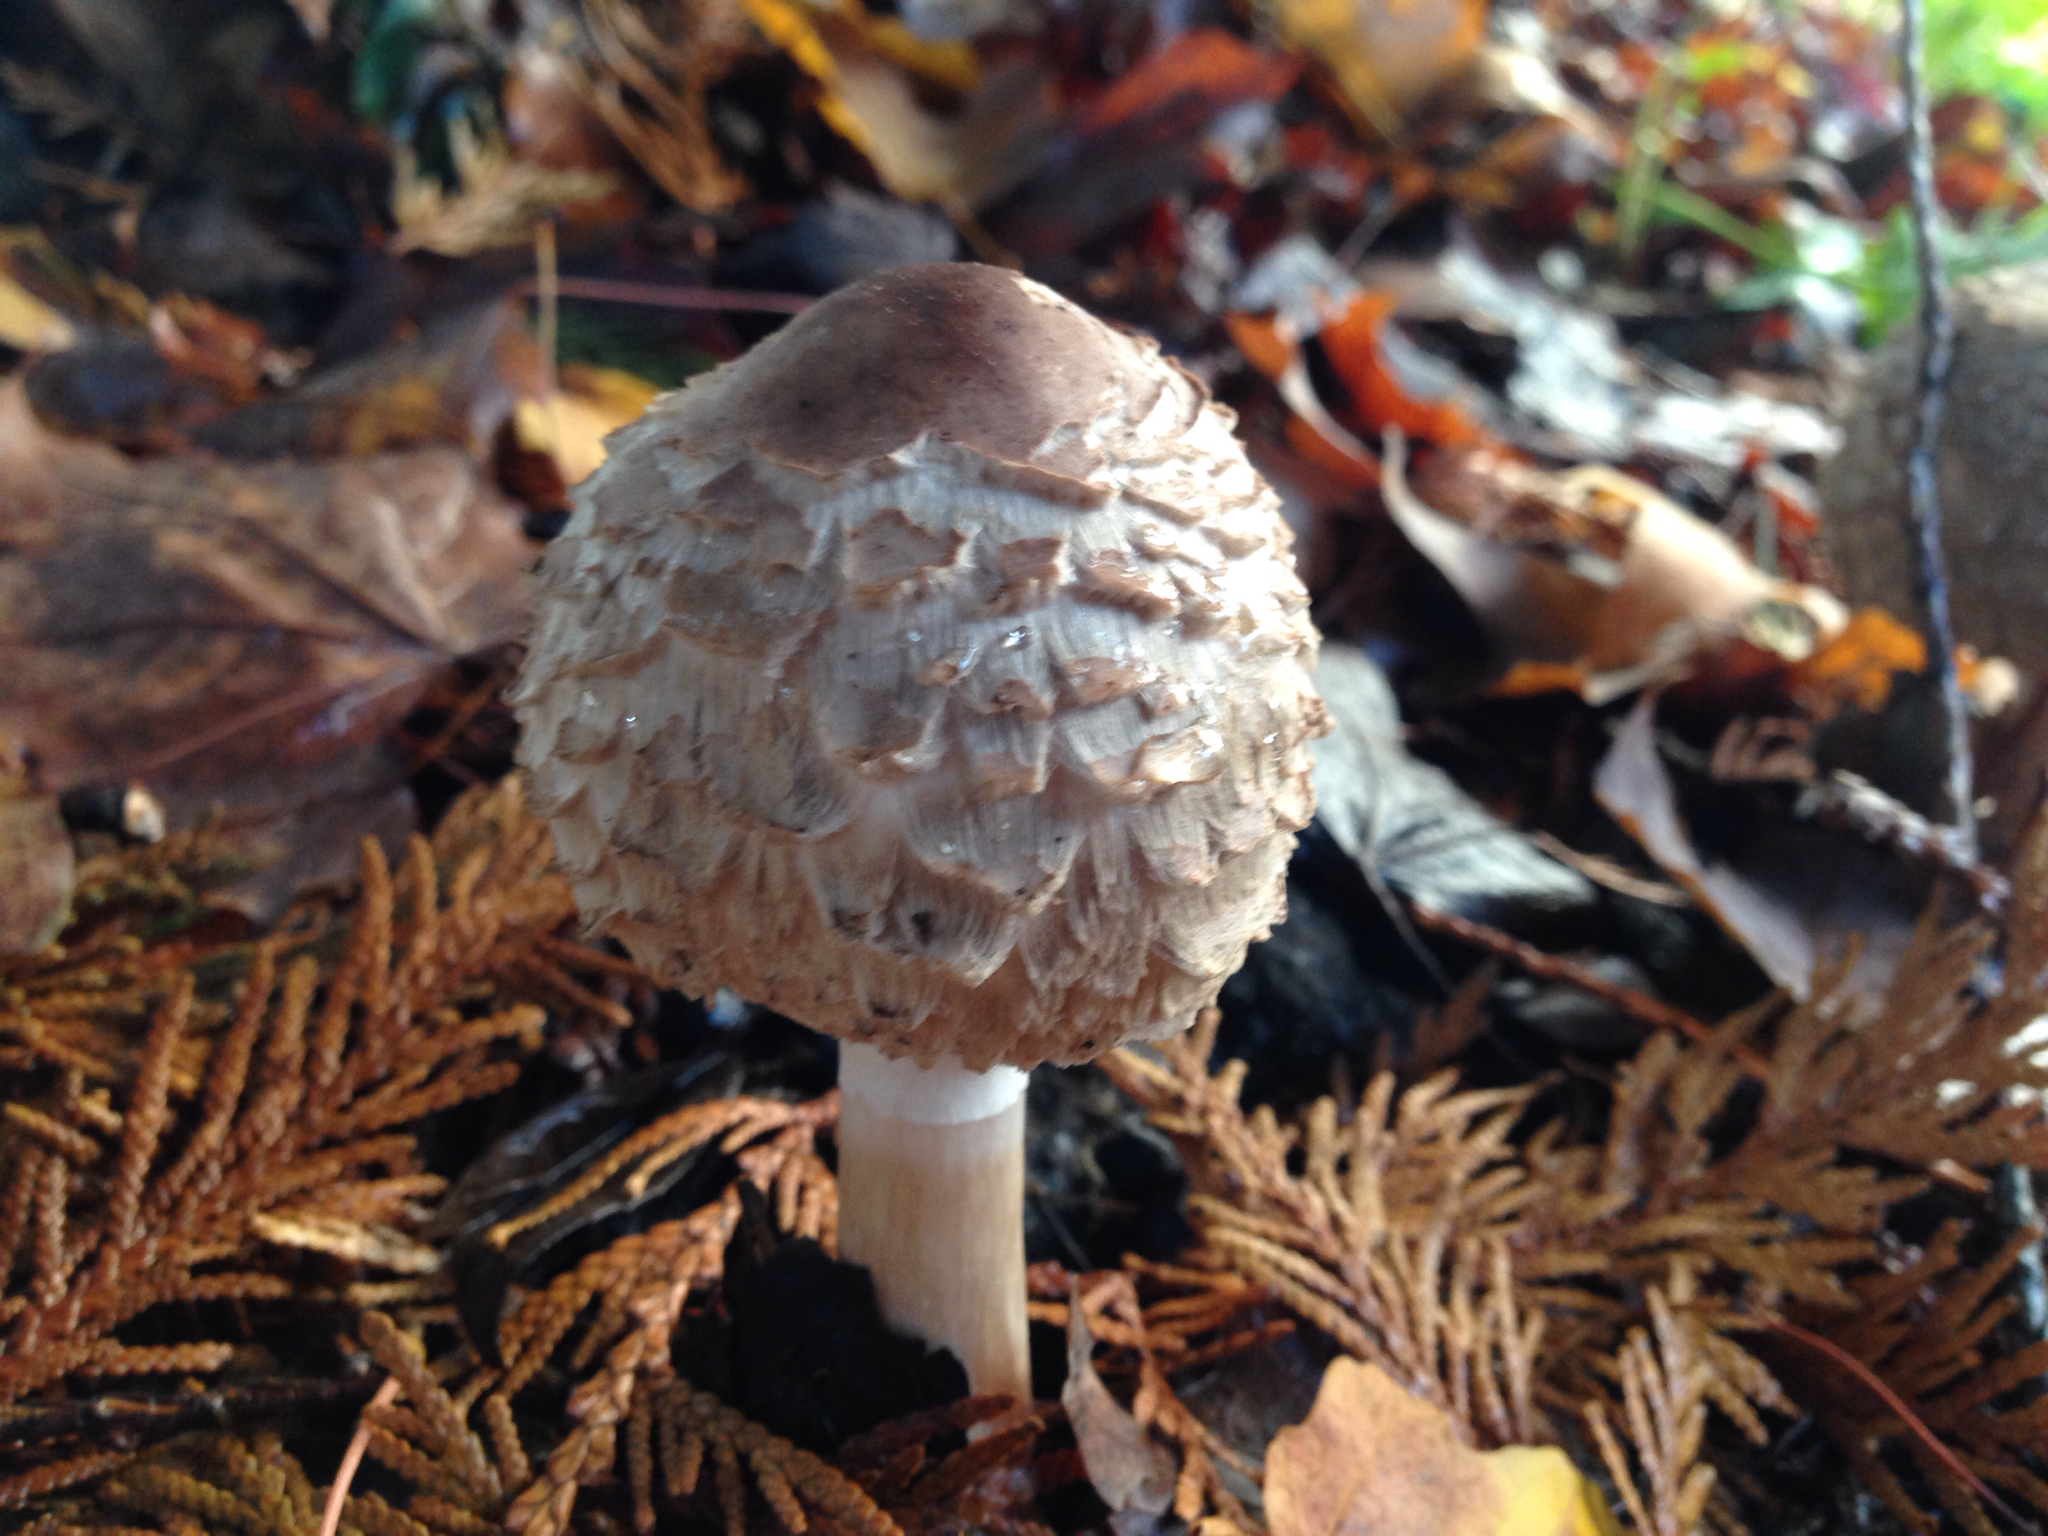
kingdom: Fungi
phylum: Basidiomycota
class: Agaricomycetes
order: Agaricales
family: Agaricaceae
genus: Chlorophyllum
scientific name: Chlorophyllum rhacodes
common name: Shaggy parasol
